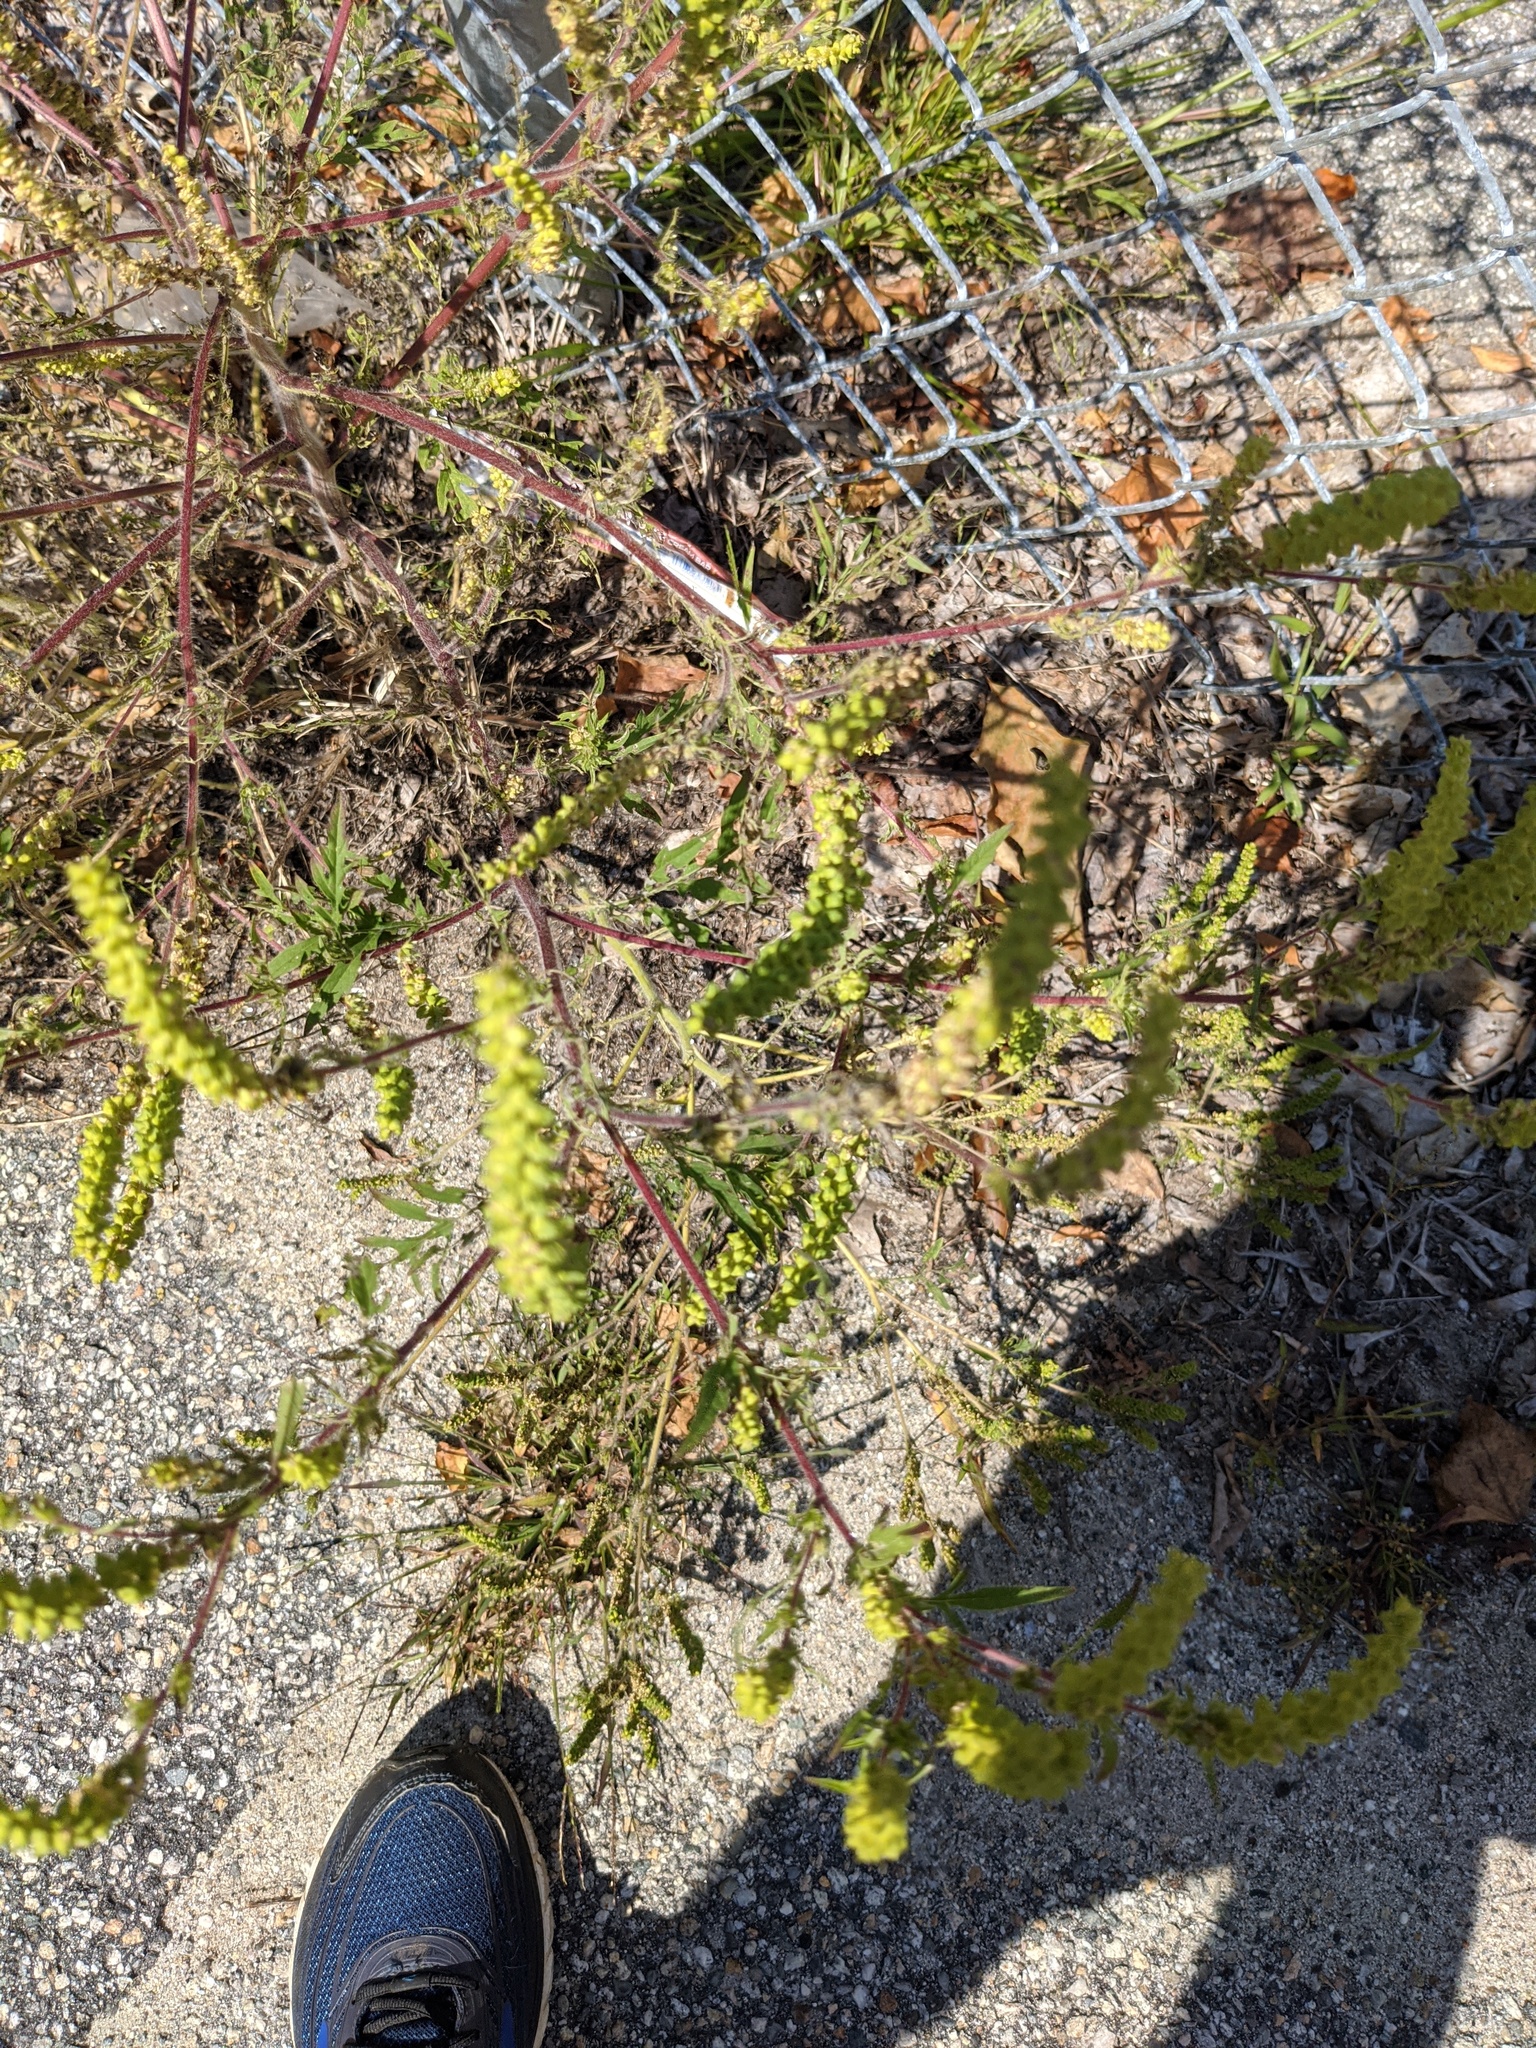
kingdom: Plantae
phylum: Tracheophyta
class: Magnoliopsida
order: Asterales
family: Asteraceae
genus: Ambrosia
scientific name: Ambrosia artemisiifolia
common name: Annual ragweed
